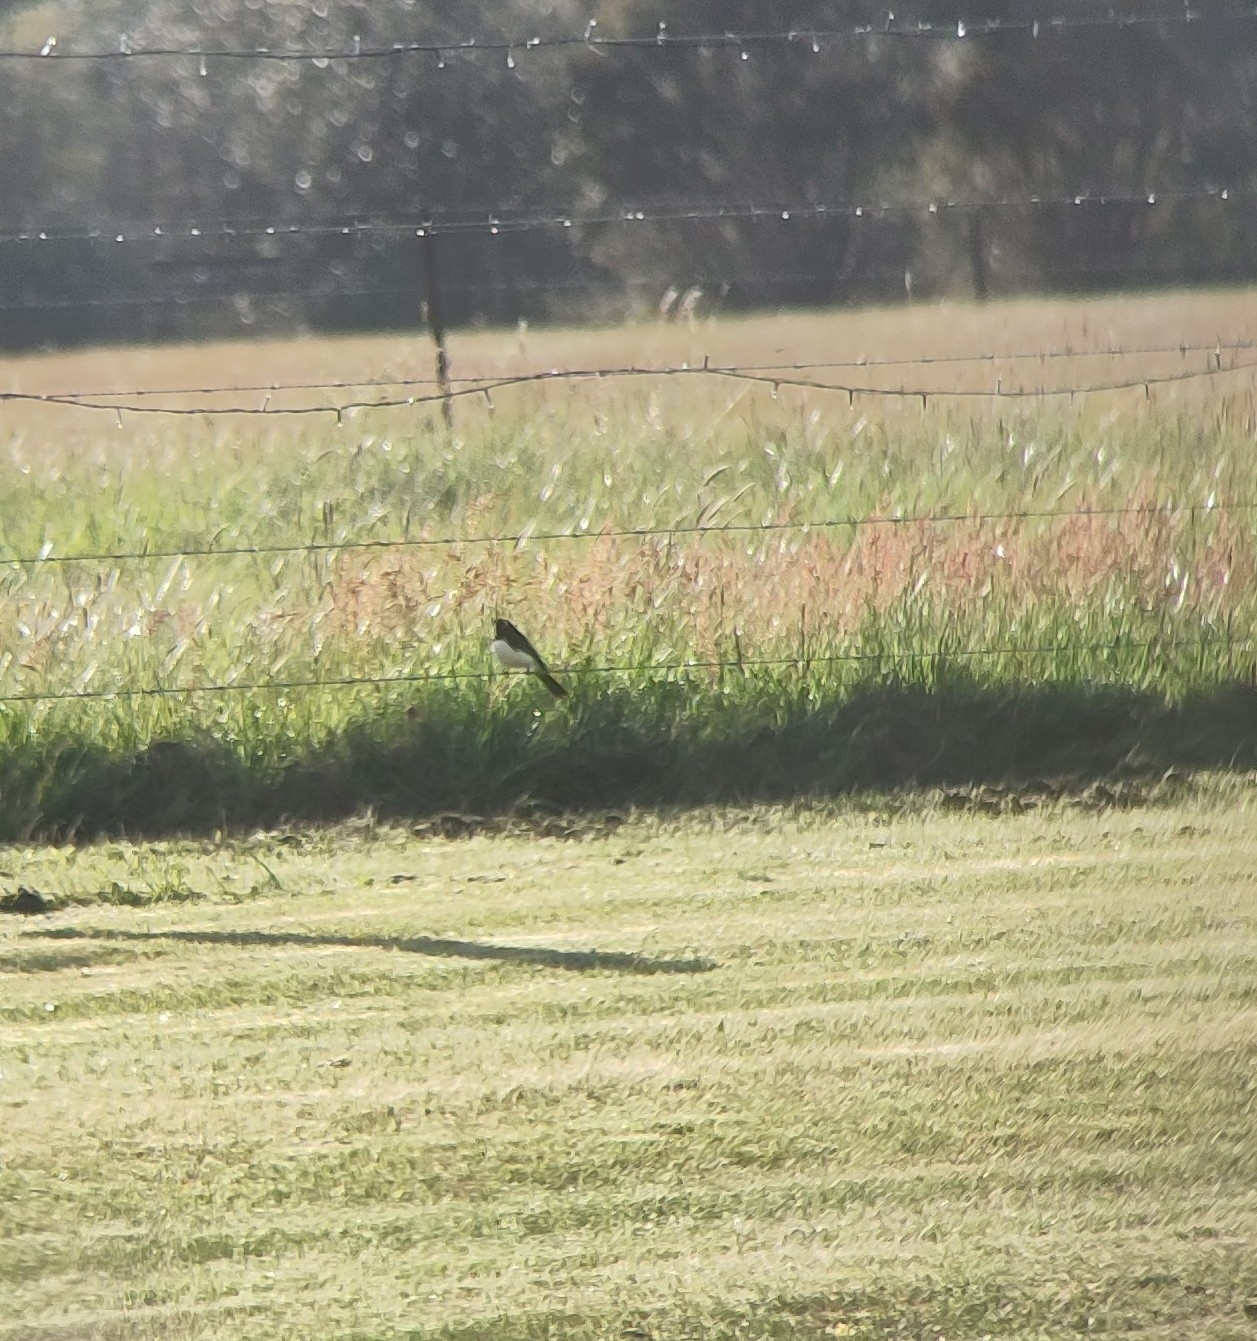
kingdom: Animalia
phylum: Chordata
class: Aves
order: Passeriformes
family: Rhipiduridae
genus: Rhipidura
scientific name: Rhipidura leucophrys
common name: Willie wagtail
